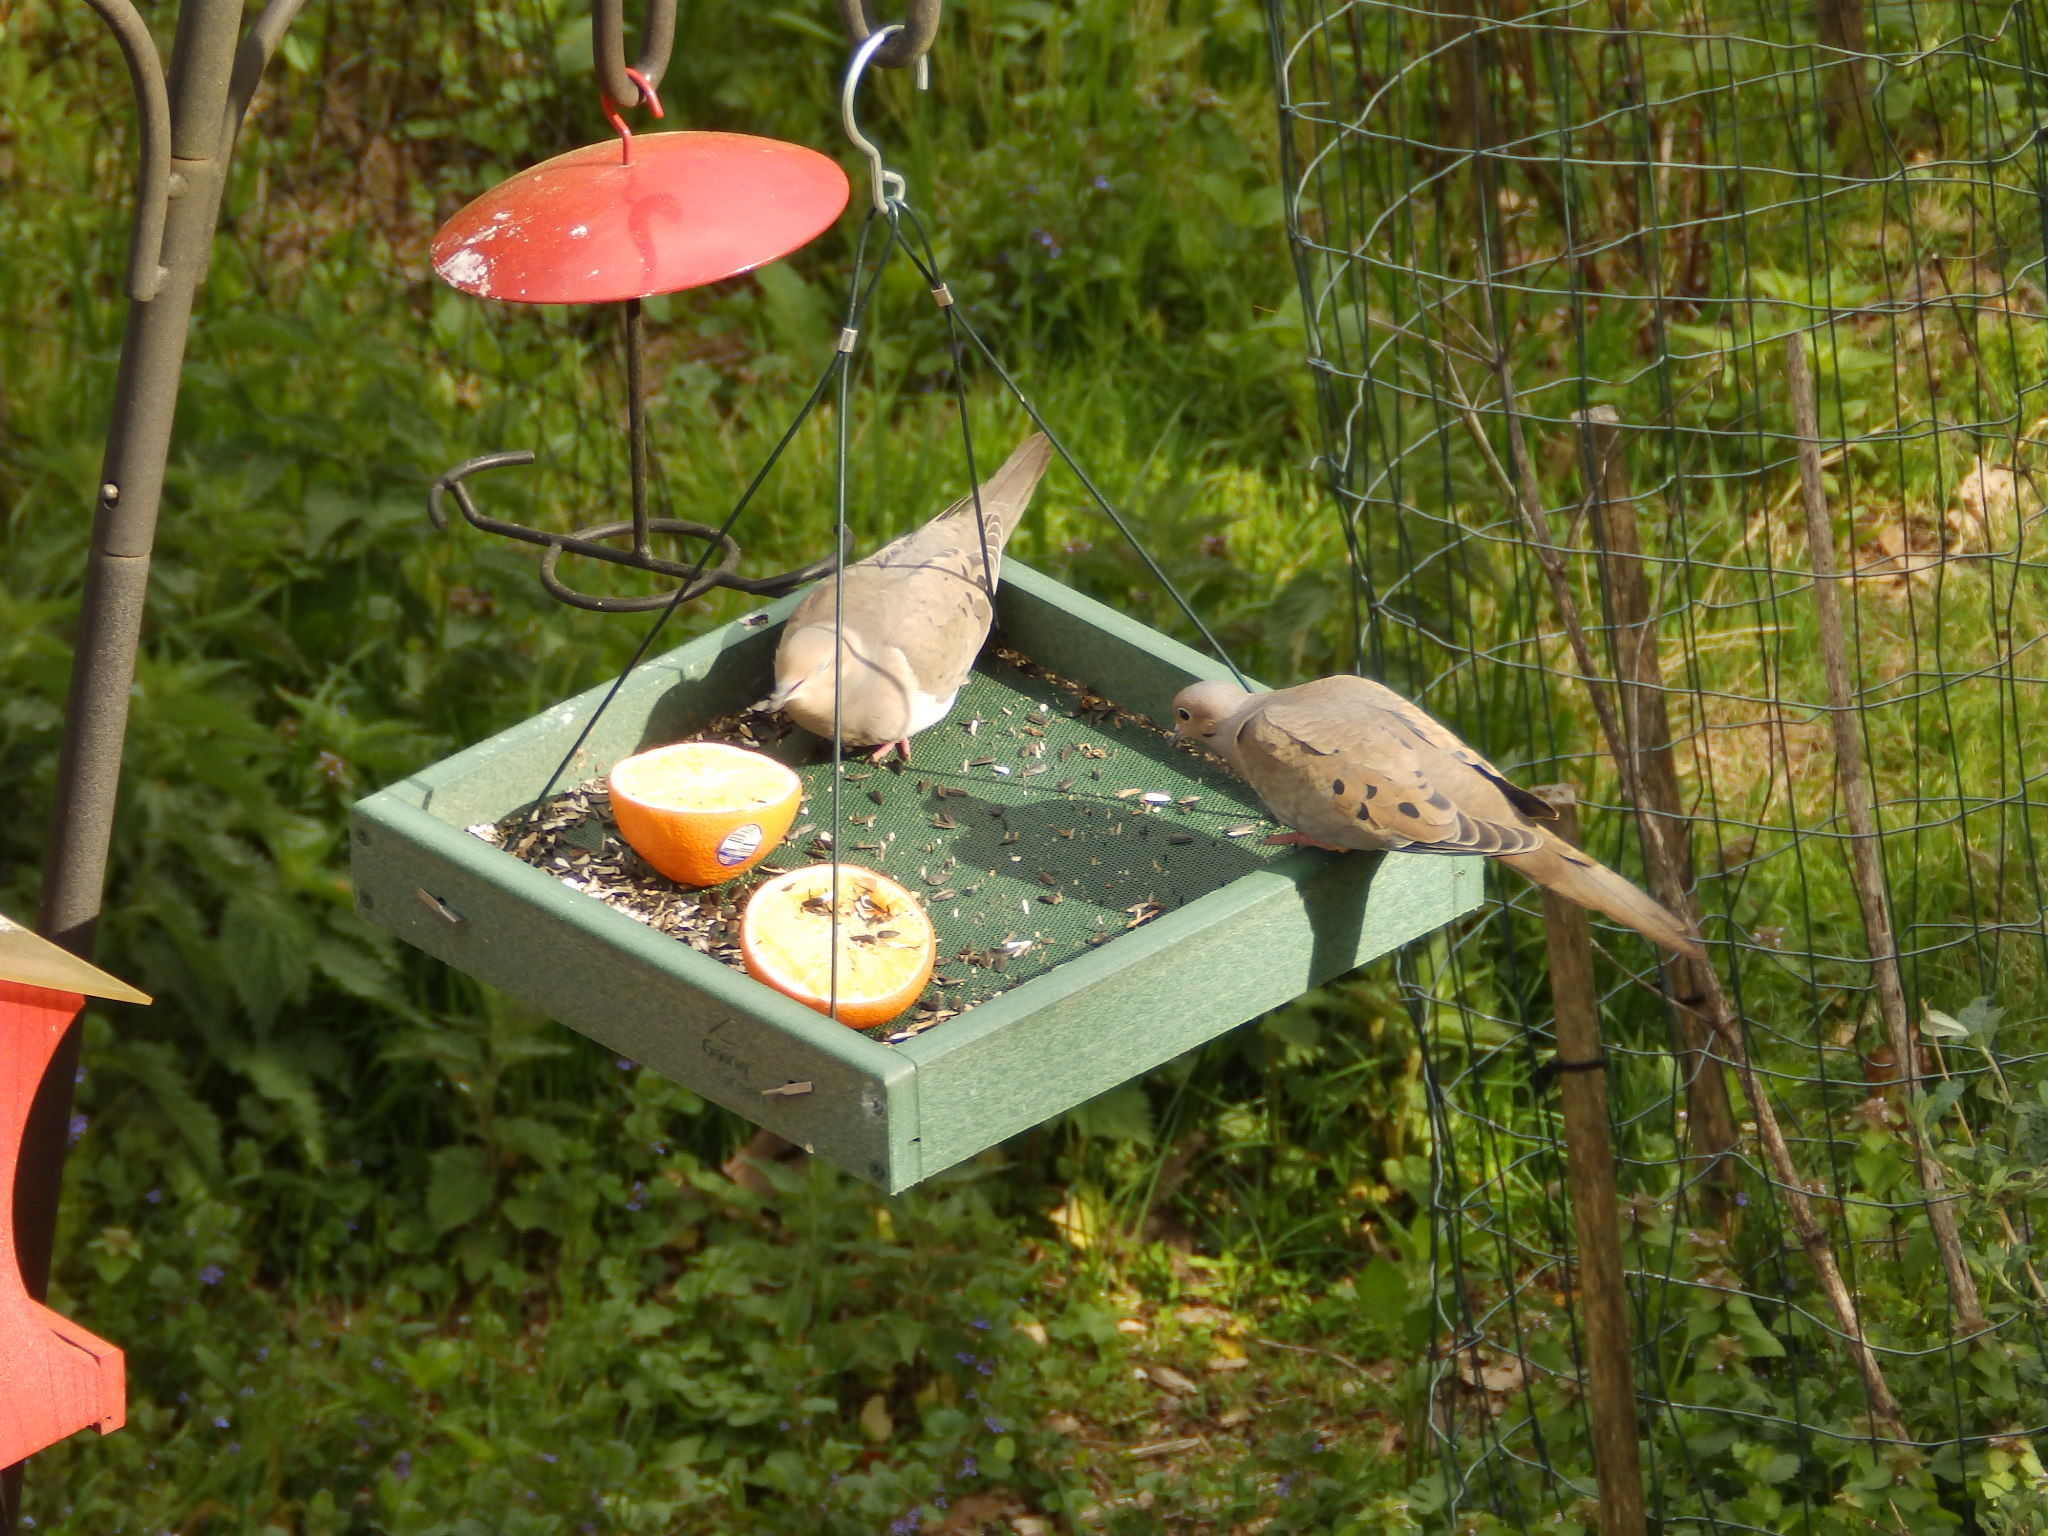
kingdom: Animalia
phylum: Chordata
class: Aves
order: Columbiformes
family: Columbidae
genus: Zenaida
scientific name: Zenaida macroura
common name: Mourning dove
